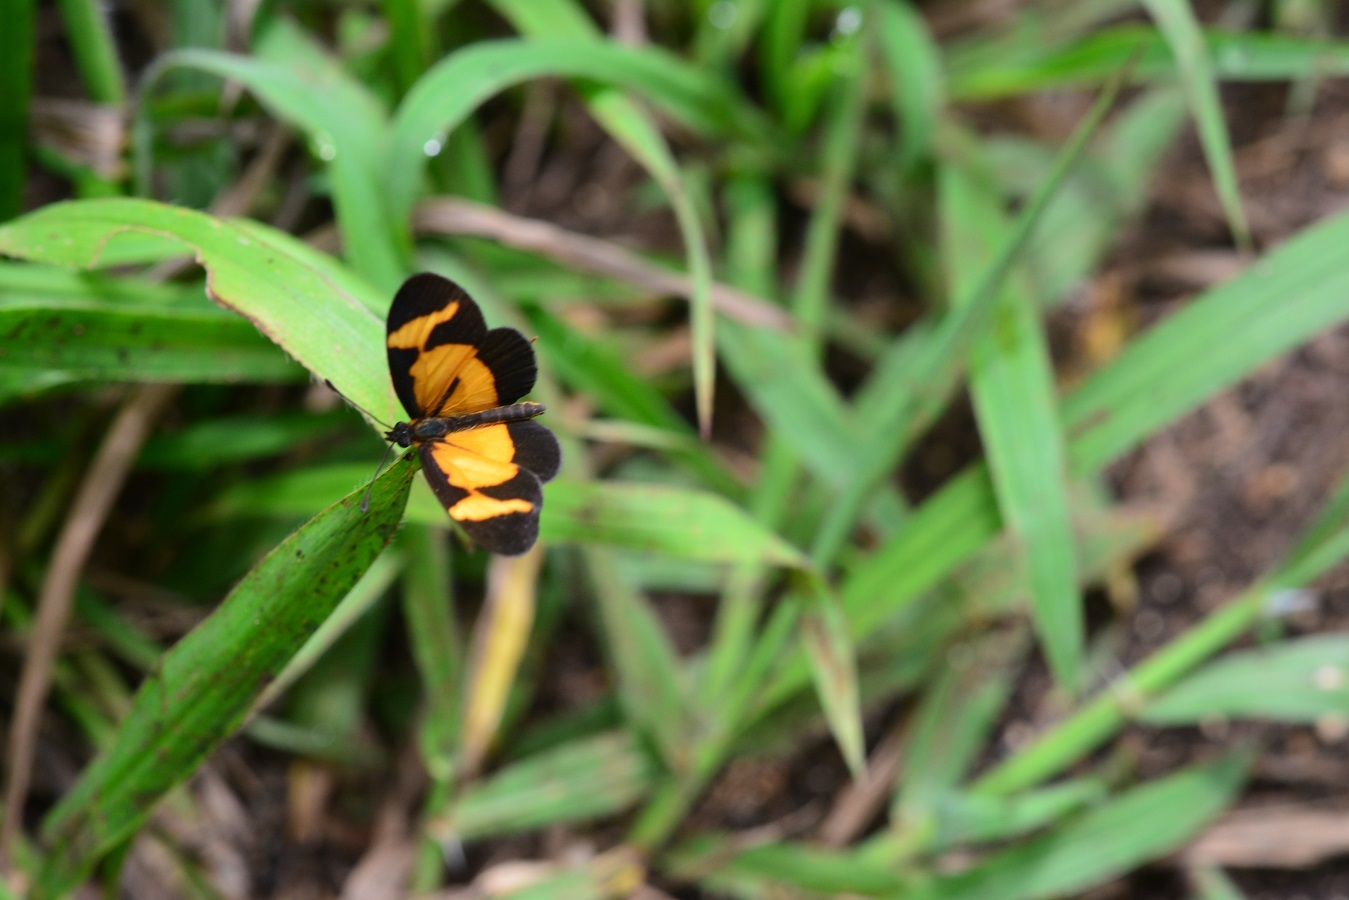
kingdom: Animalia
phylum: Arthropoda
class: Insecta
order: Lepidoptera
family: Nymphalidae
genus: Microtia
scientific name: Microtia elva
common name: Elf
